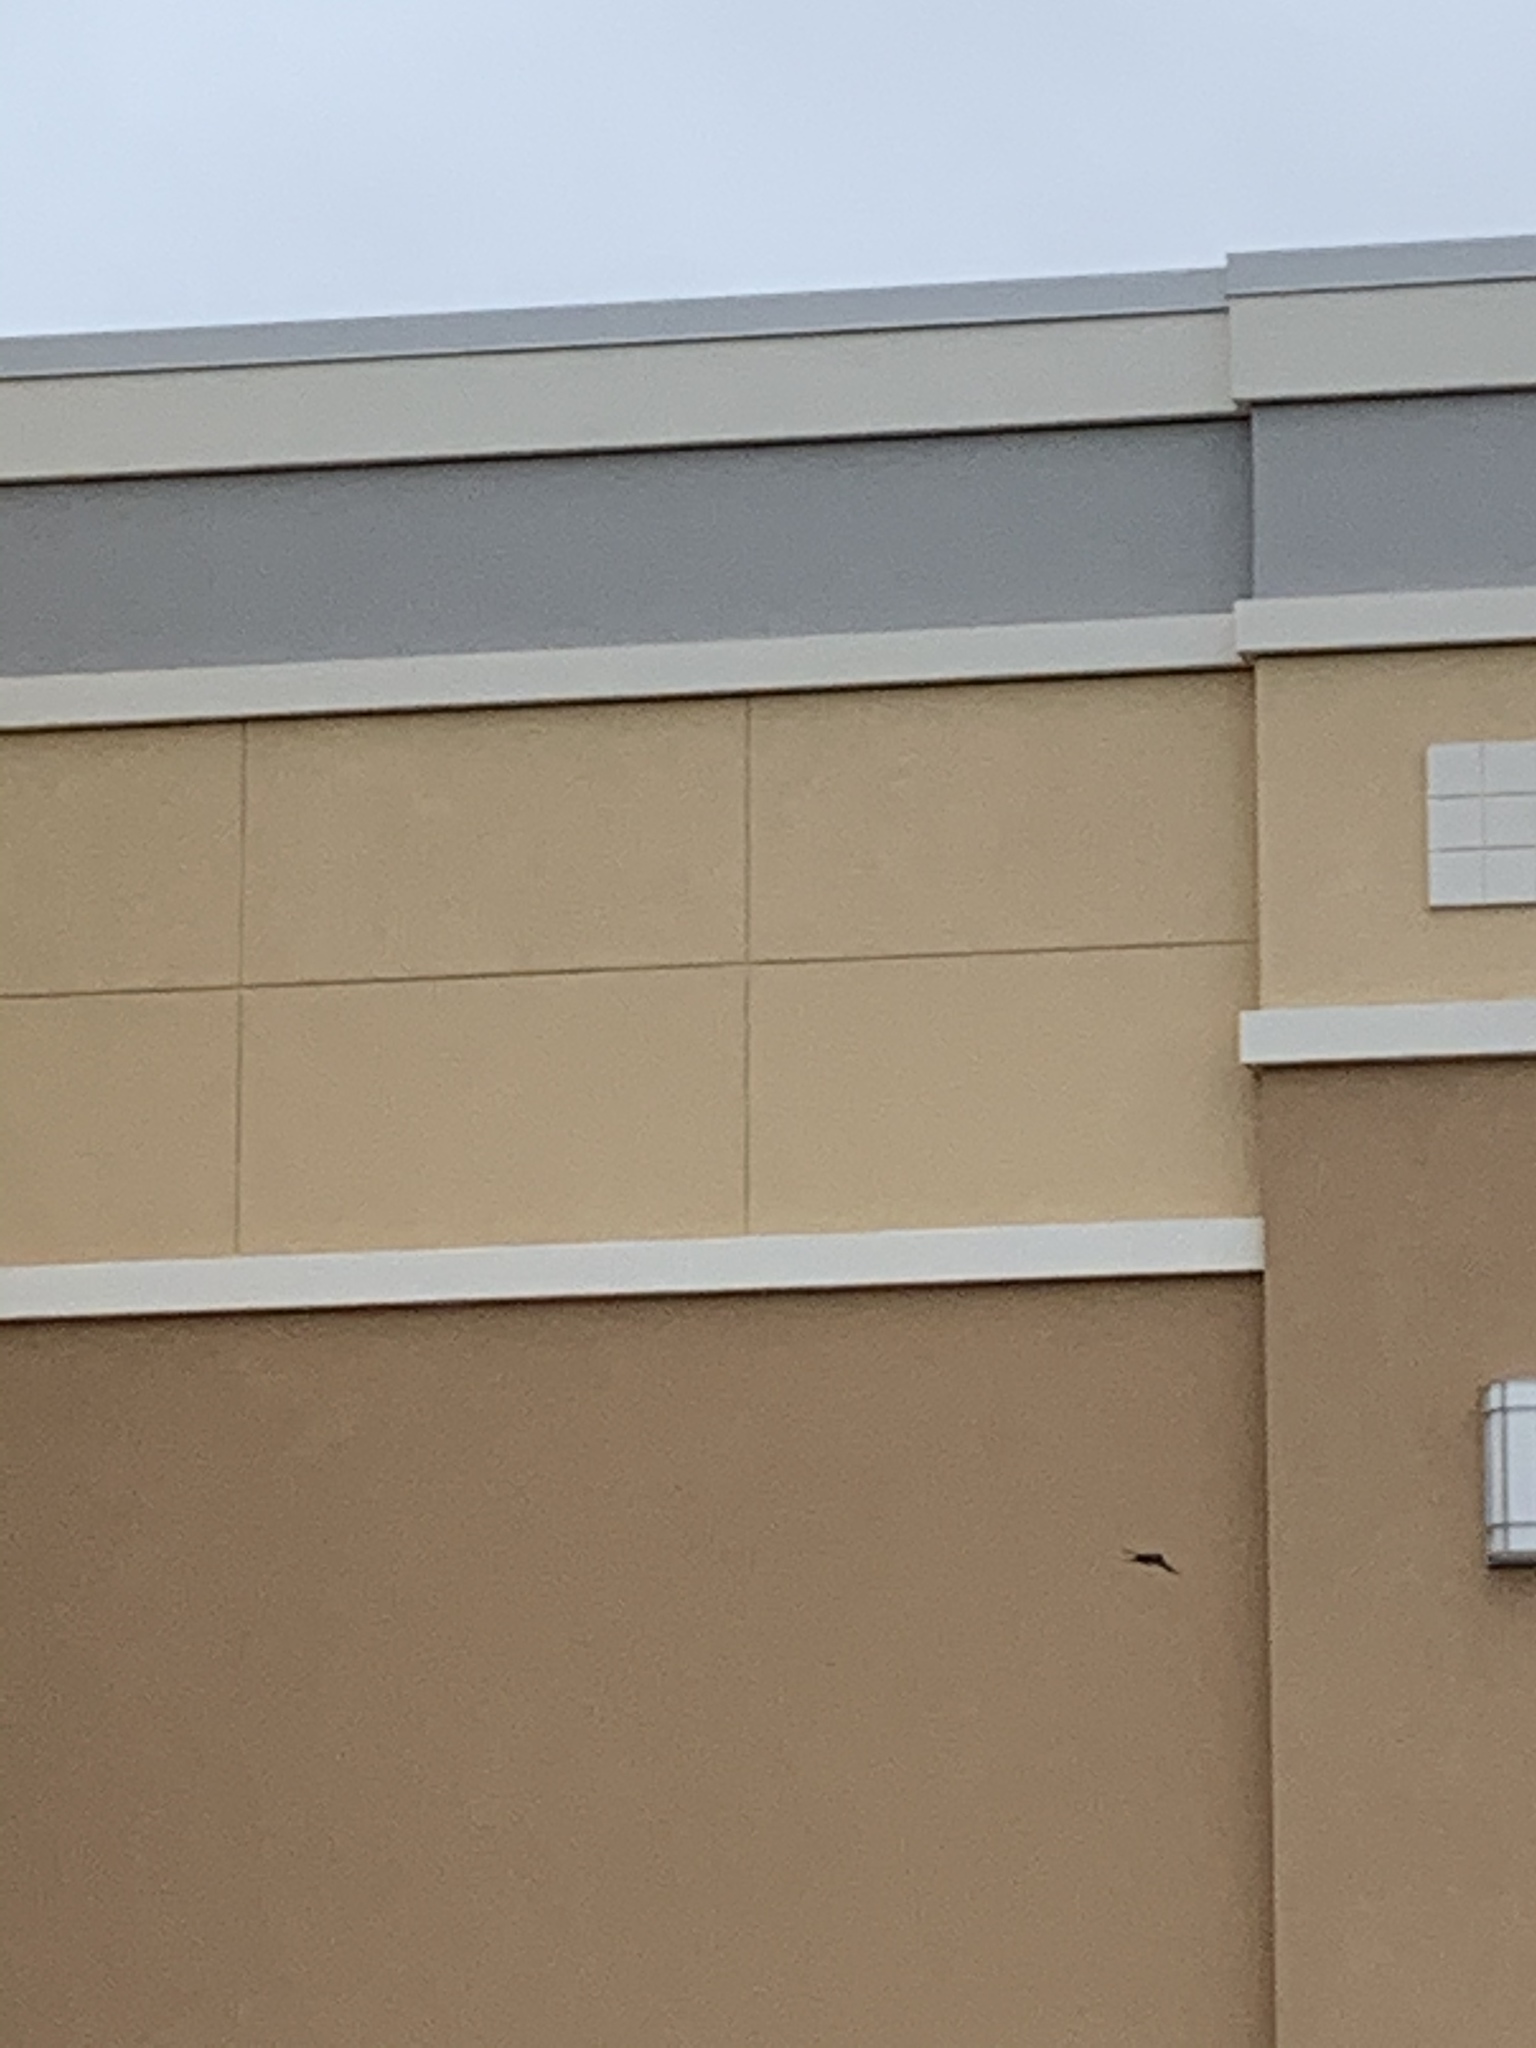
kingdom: Animalia
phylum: Chordata
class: Aves
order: Passeriformes
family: Hirundinidae
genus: Hirundo
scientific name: Hirundo rustica
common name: Barn swallow
